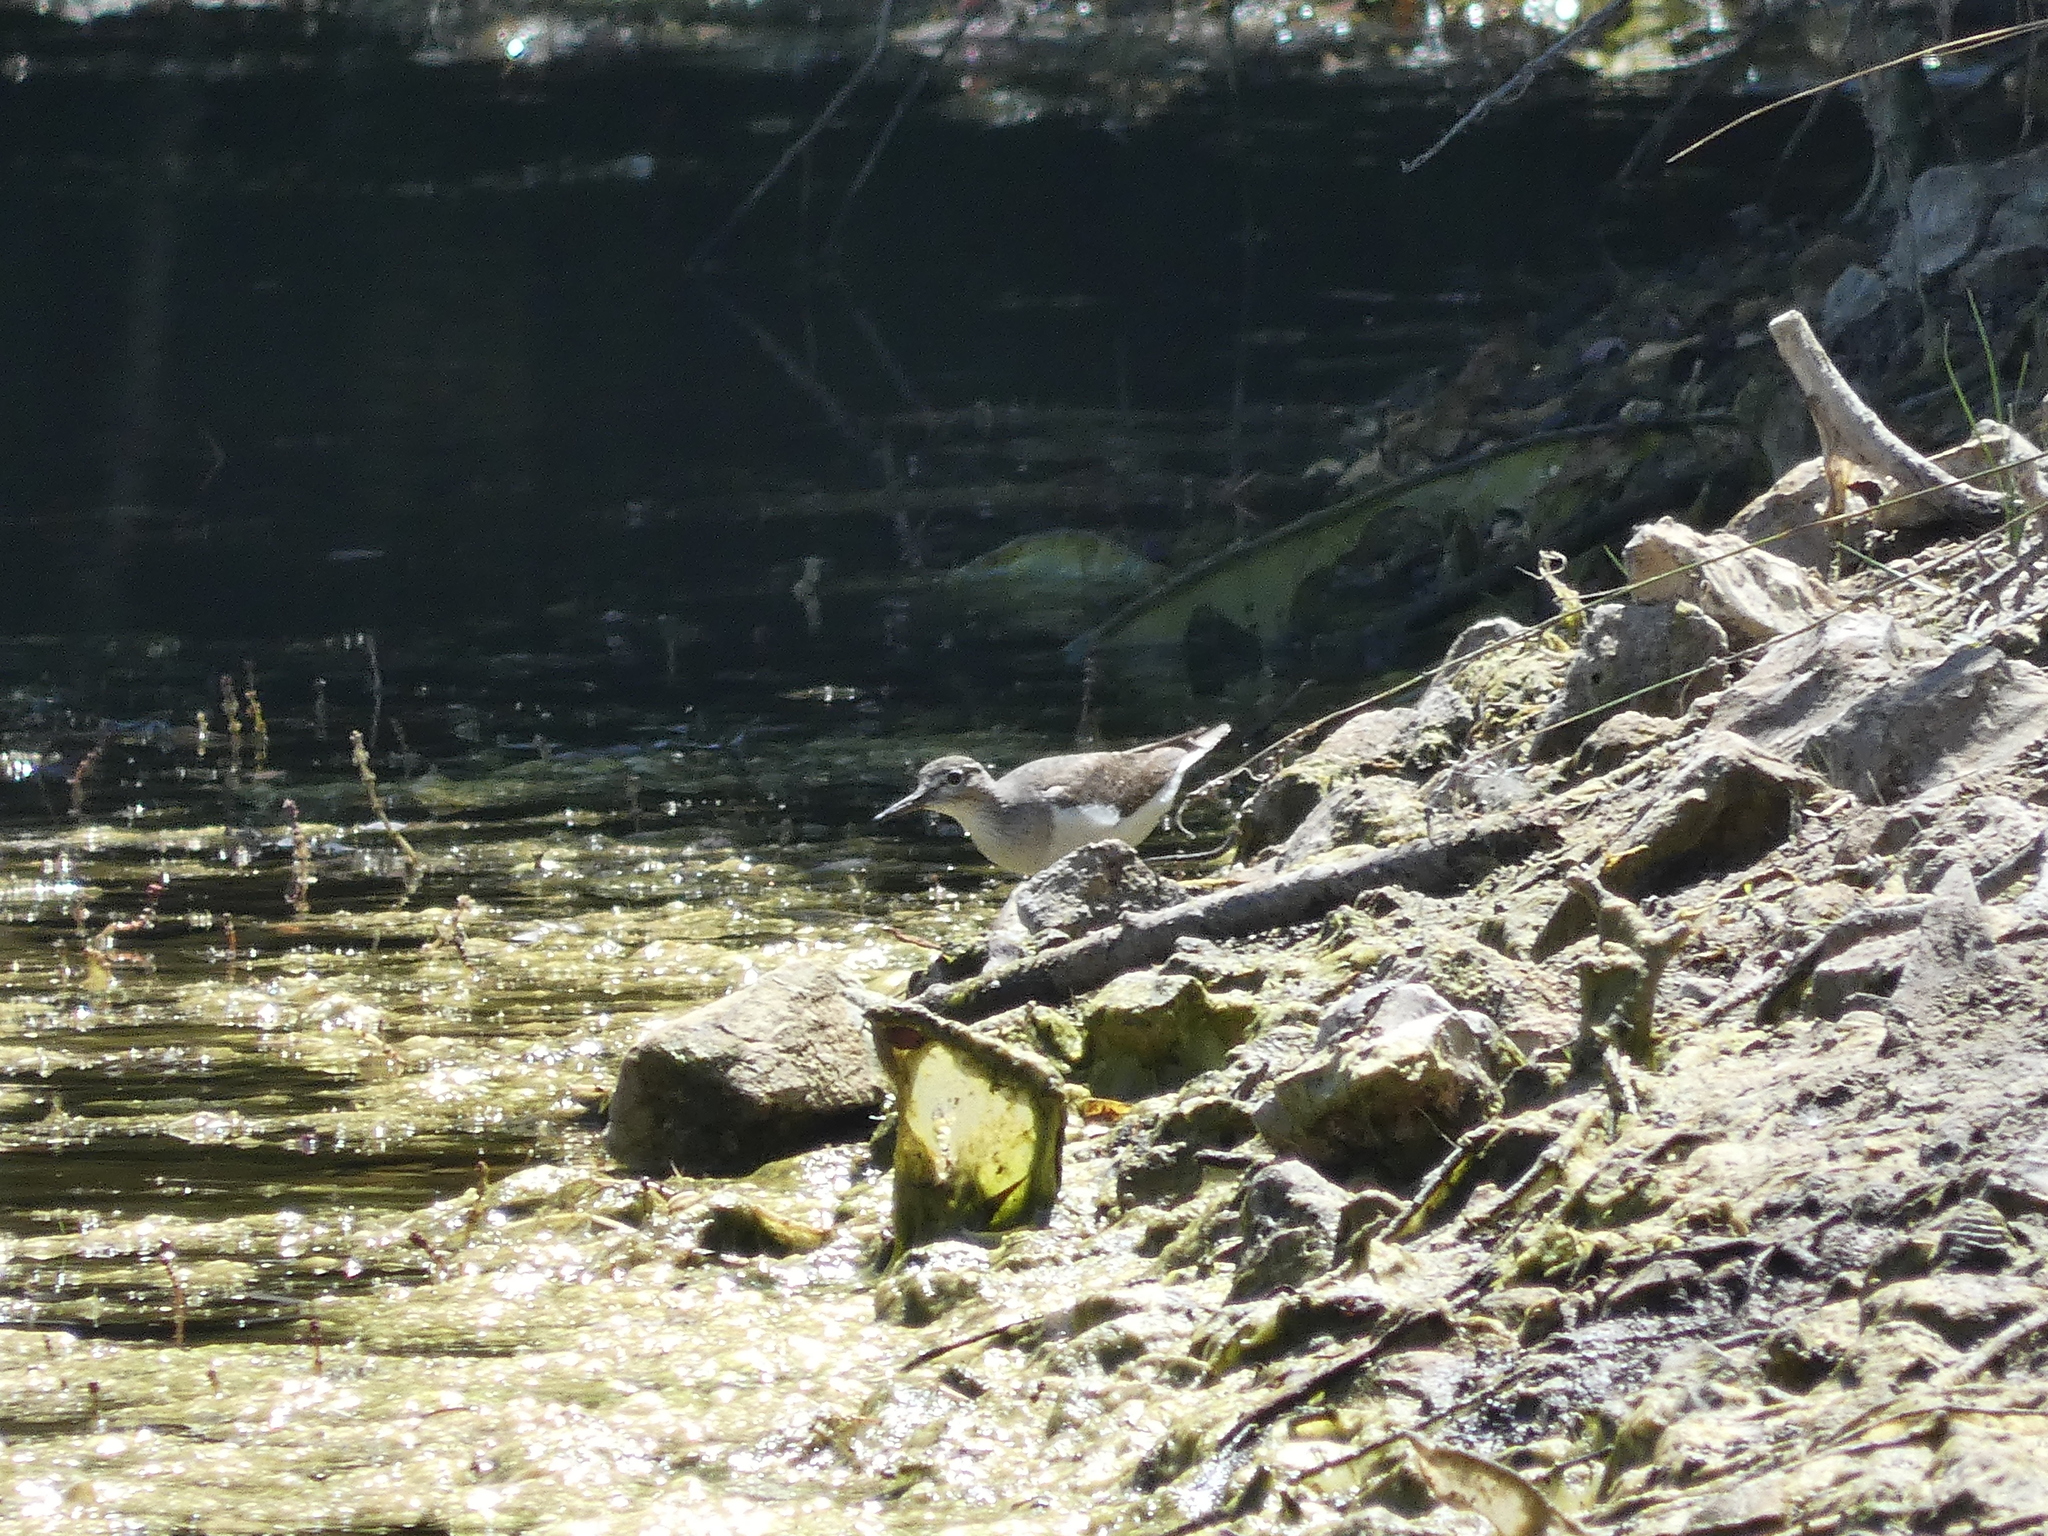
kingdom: Animalia
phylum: Chordata
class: Aves
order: Charadriiformes
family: Scolopacidae
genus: Actitis
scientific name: Actitis hypoleucos
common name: Common sandpiper
